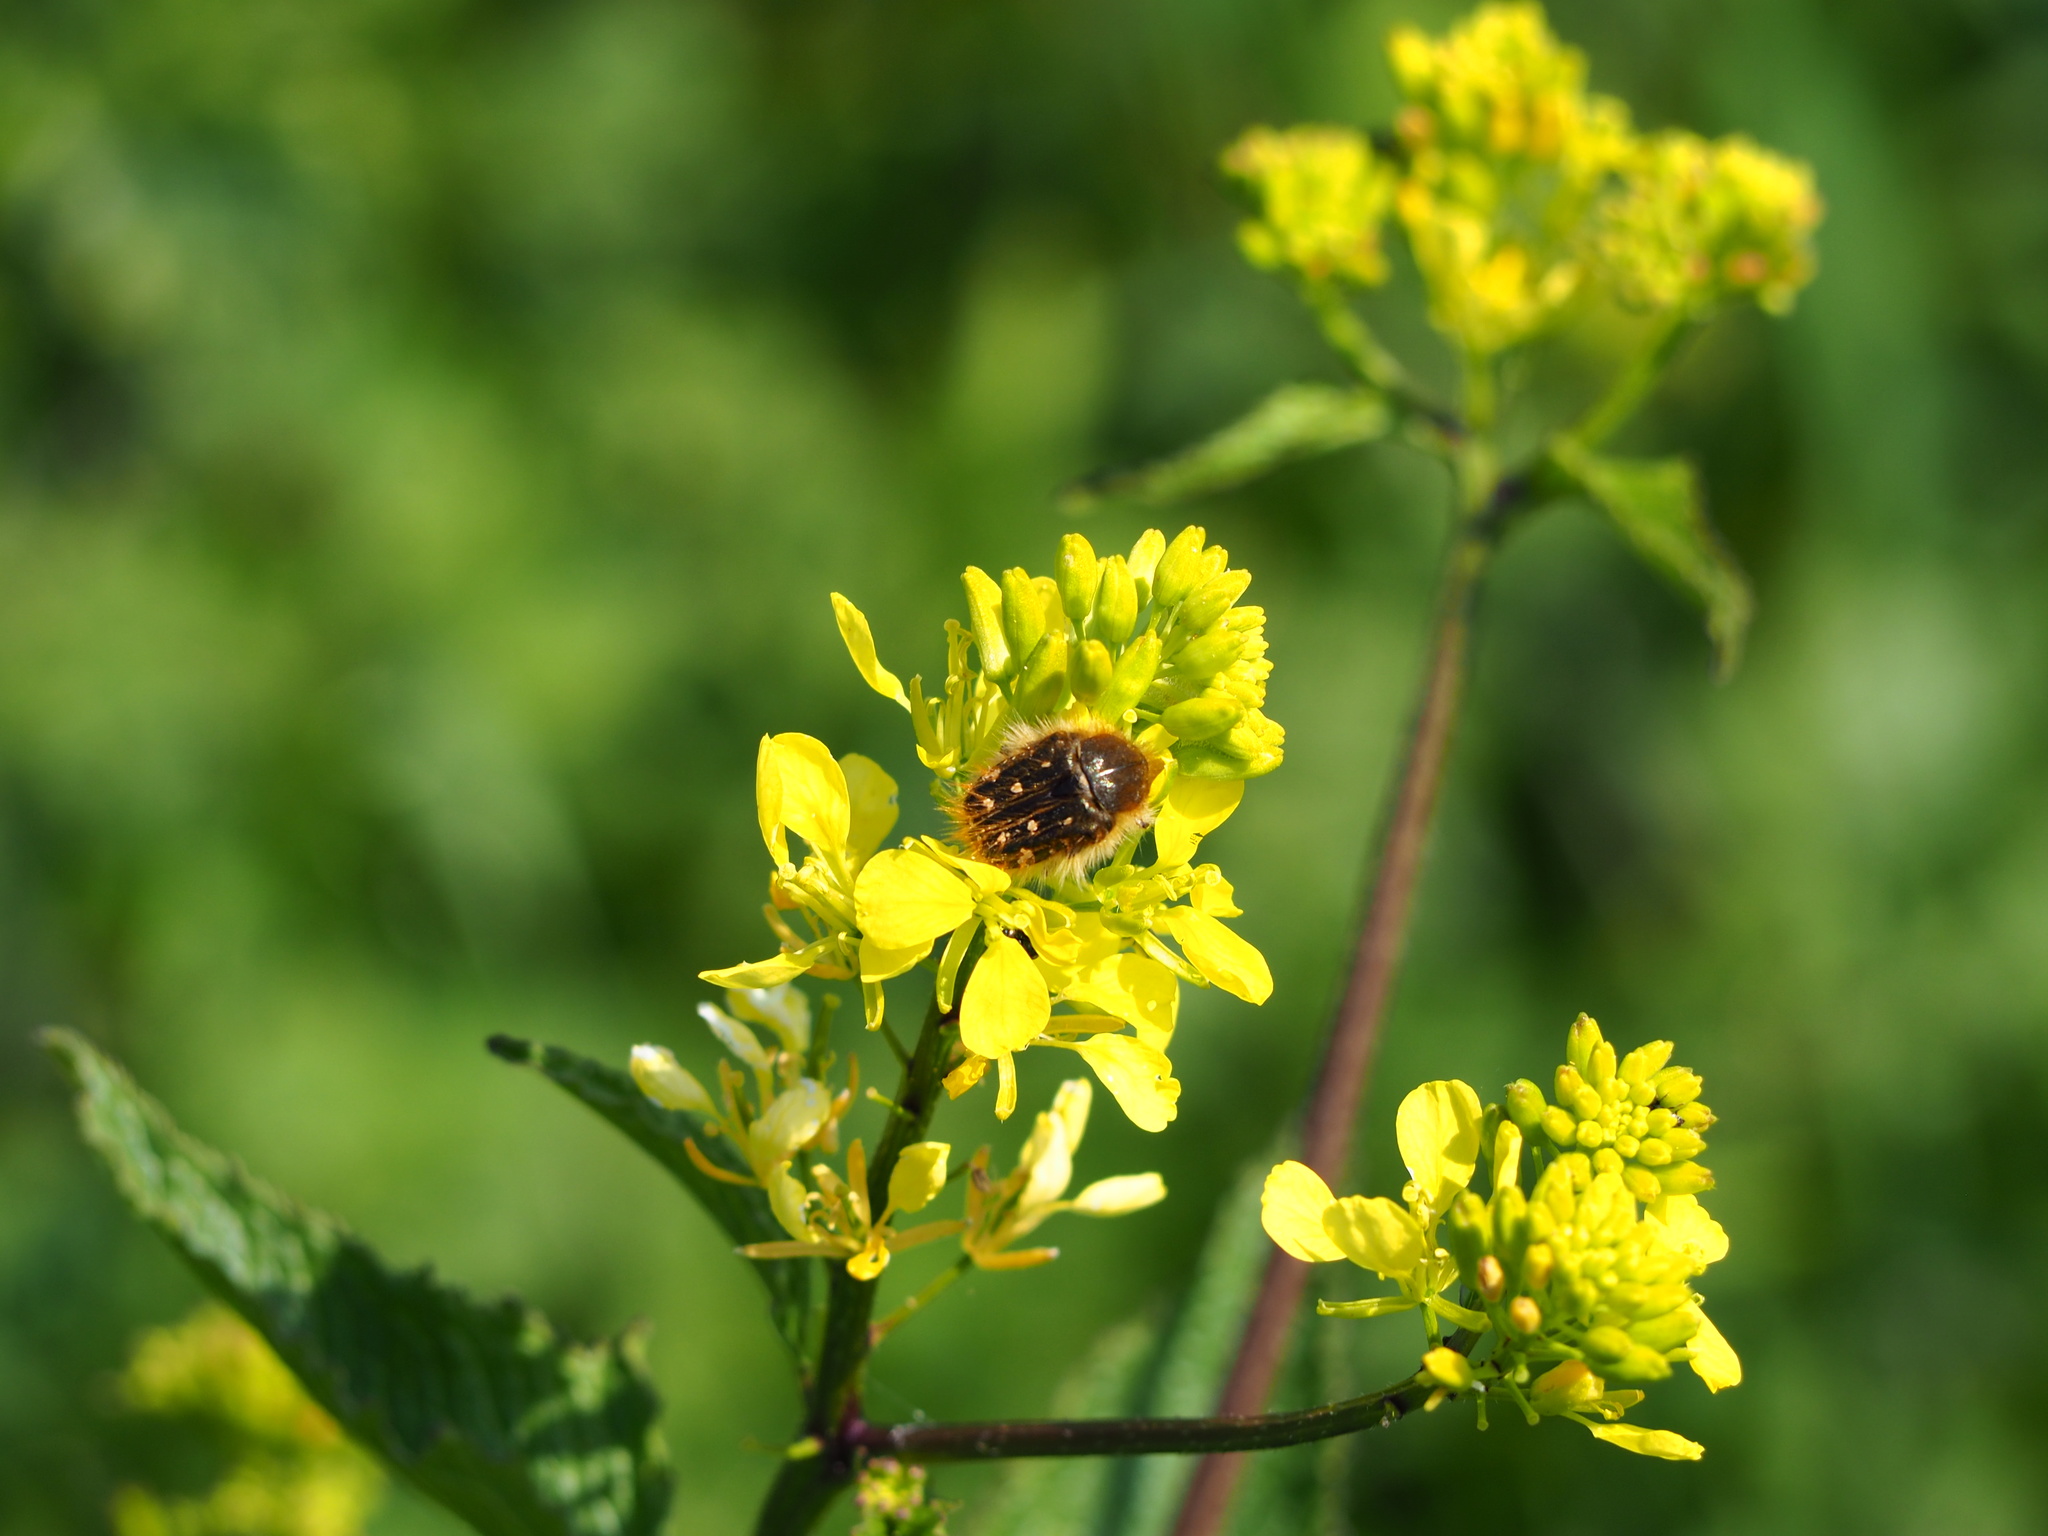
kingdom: Animalia
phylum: Arthropoda
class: Insecta
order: Coleoptera
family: Scarabaeidae
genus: Tropinota
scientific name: Tropinota squalida
